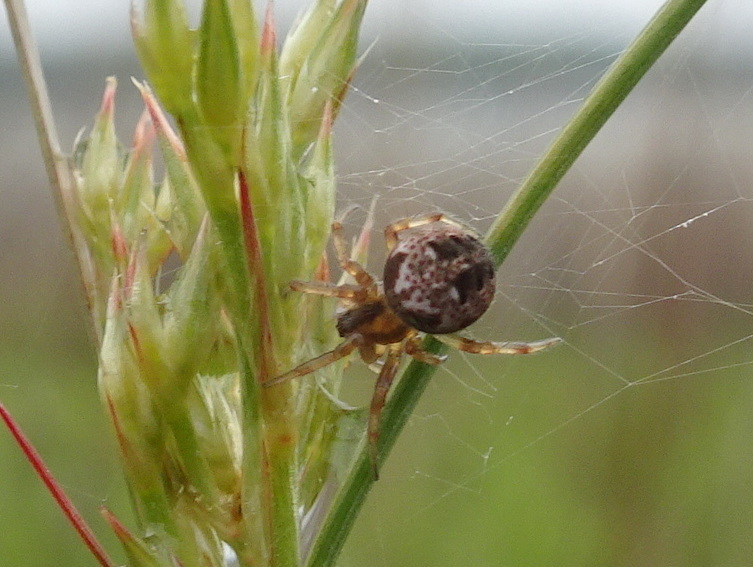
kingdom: Animalia
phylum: Arthropoda
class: Arachnida
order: Araneae
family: Araneidae
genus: Neoscona
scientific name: Neoscona arabesca
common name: Orb weavers
